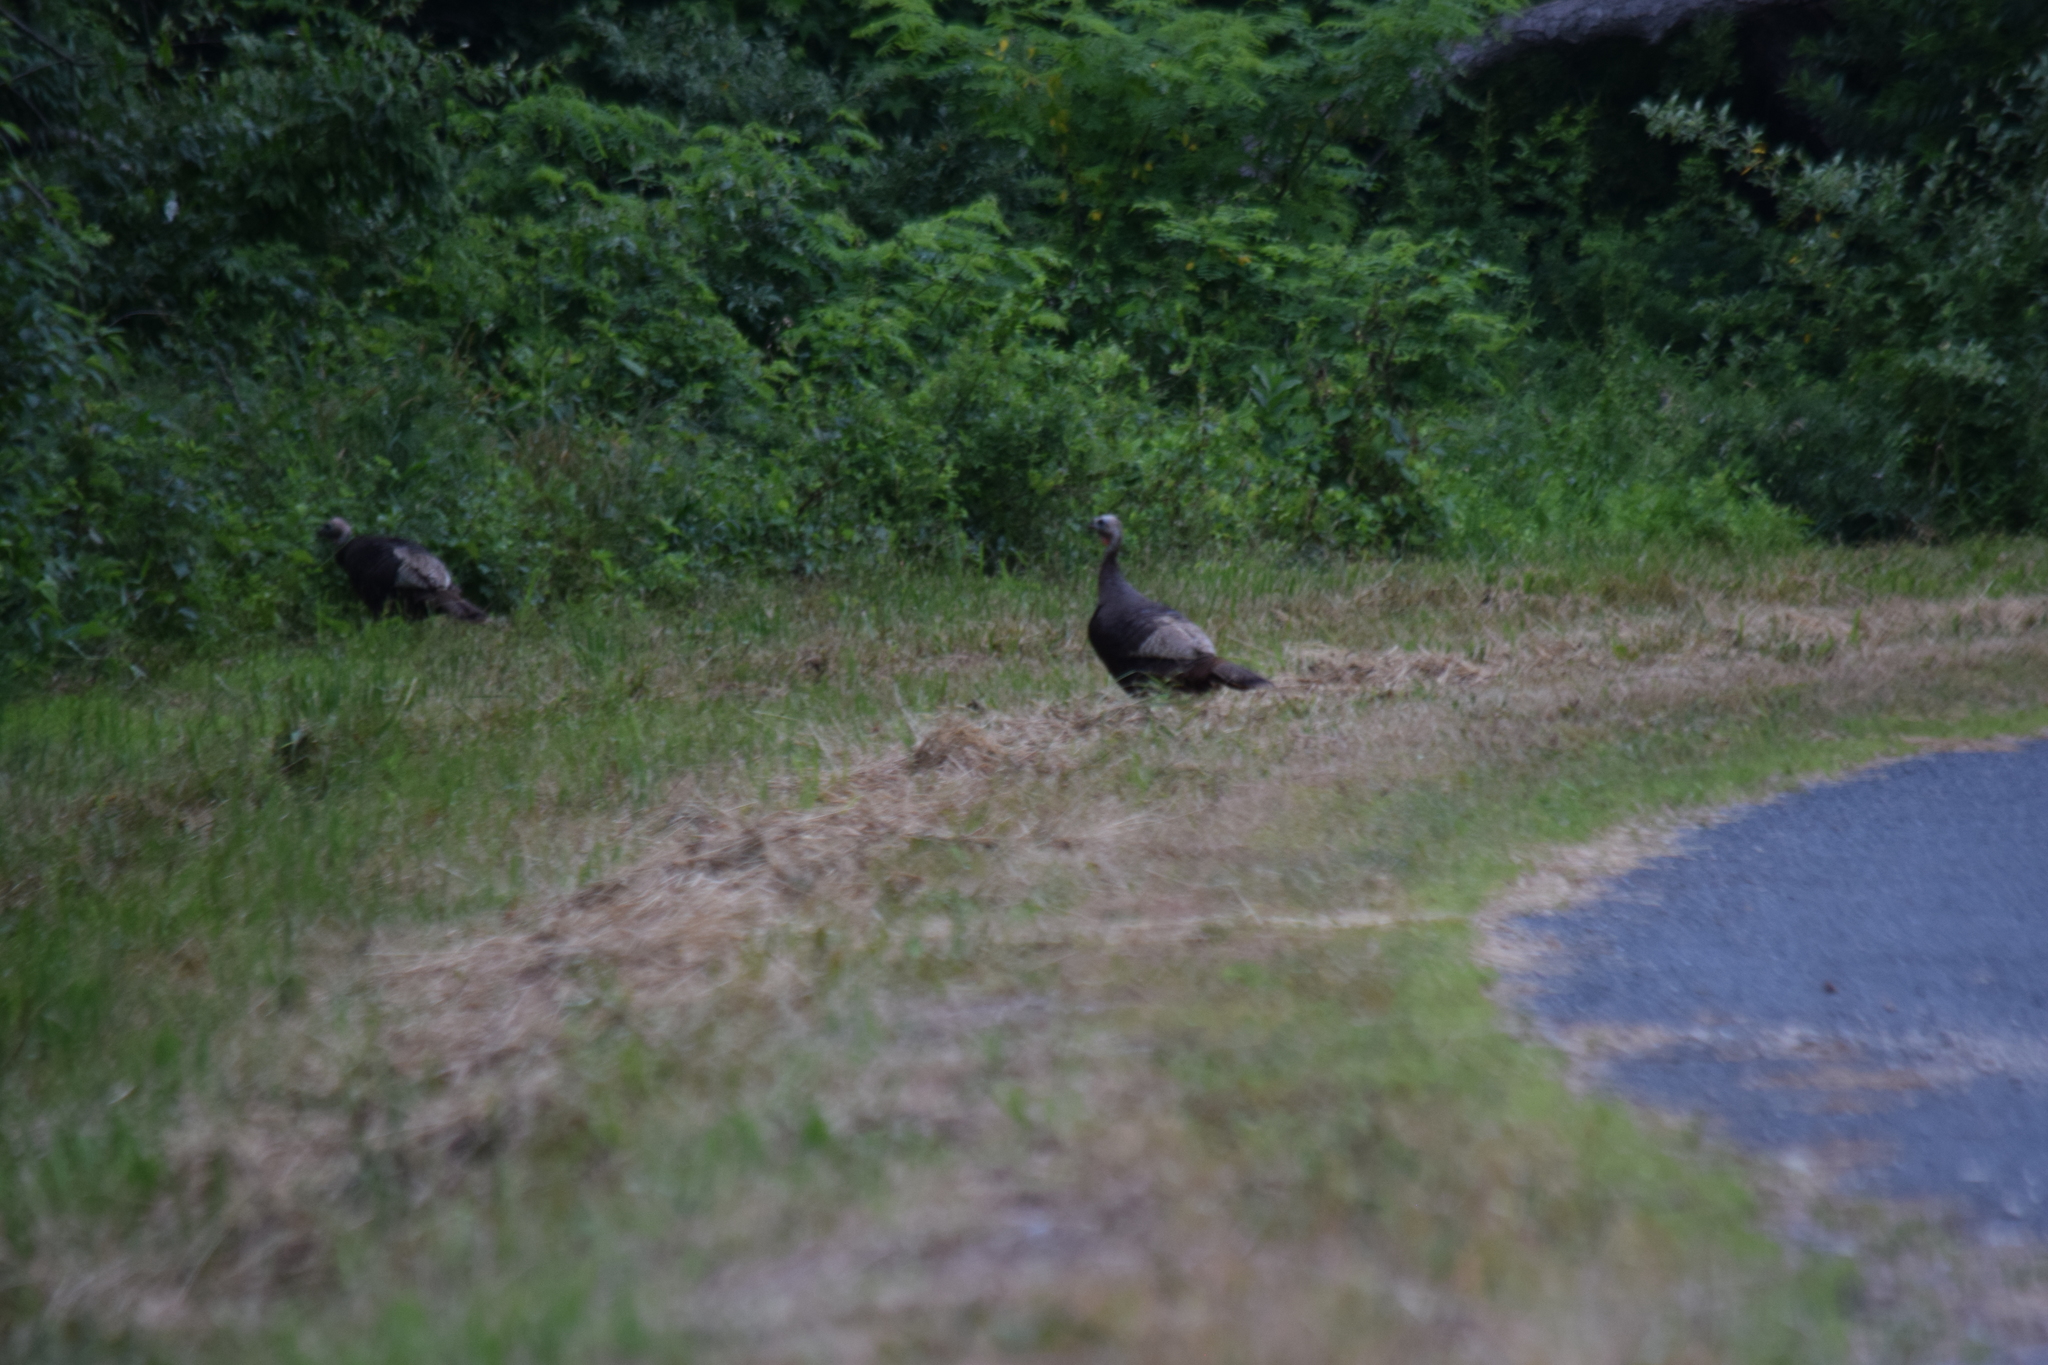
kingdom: Animalia
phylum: Chordata
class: Aves
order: Galliformes
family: Phasianidae
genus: Meleagris
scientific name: Meleagris gallopavo
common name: Wild turkey
